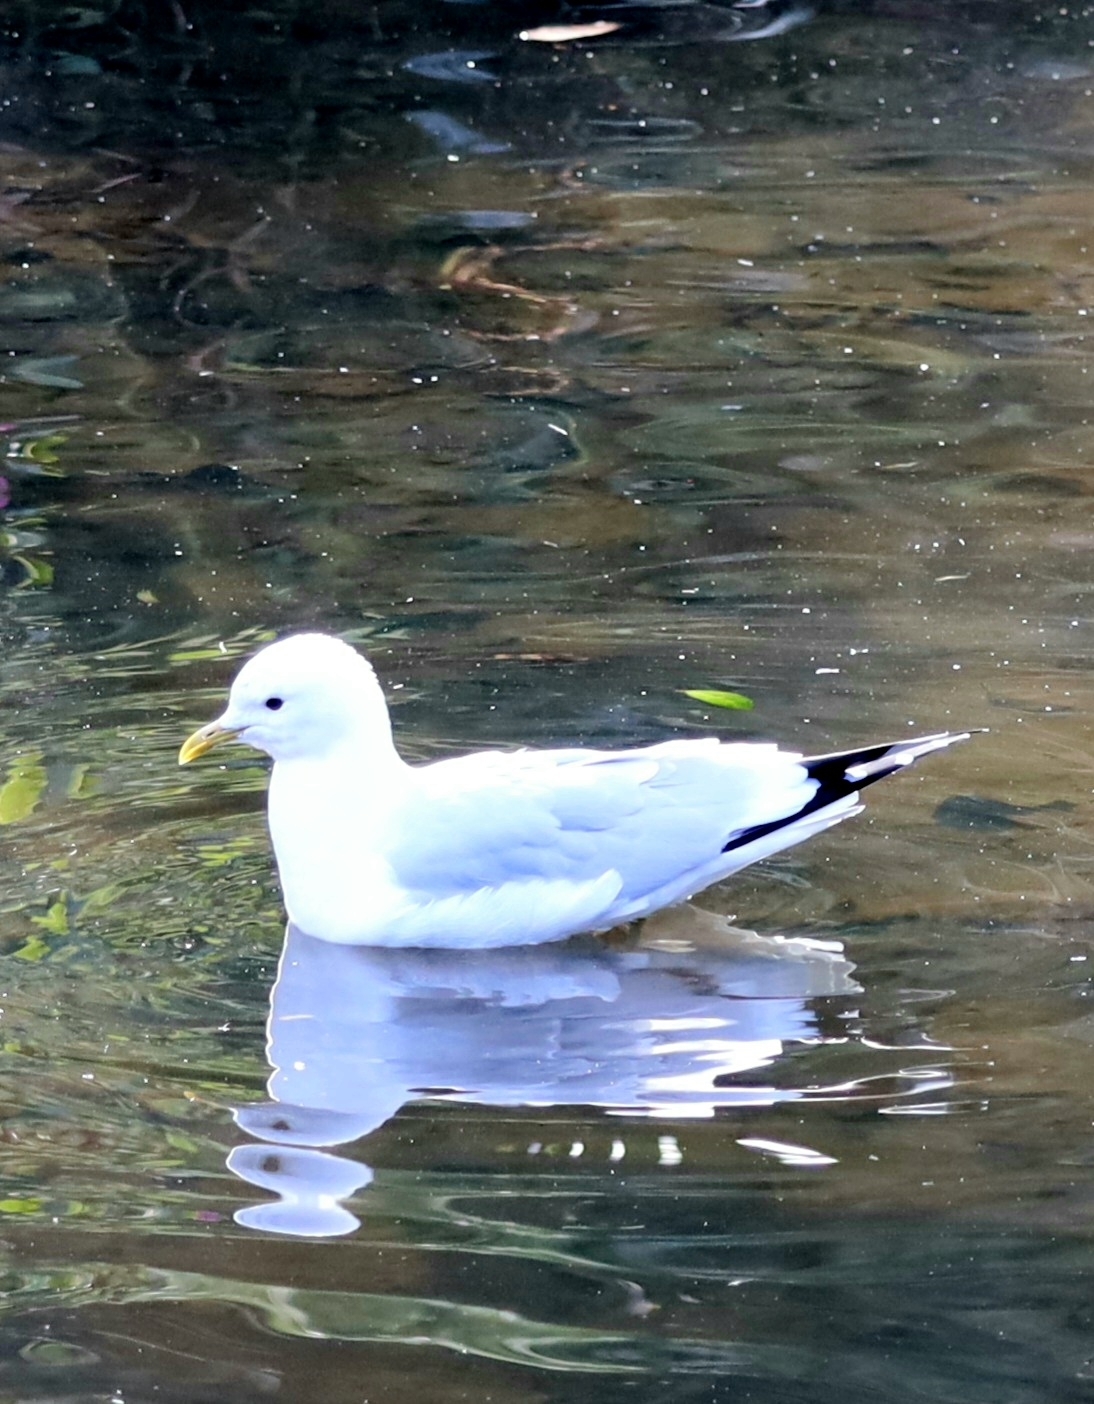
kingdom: Animalia
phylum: Chordata
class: Aves
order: Charadriiformes
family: Laridae
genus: Larus
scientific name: Larus canus
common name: Mew gull
